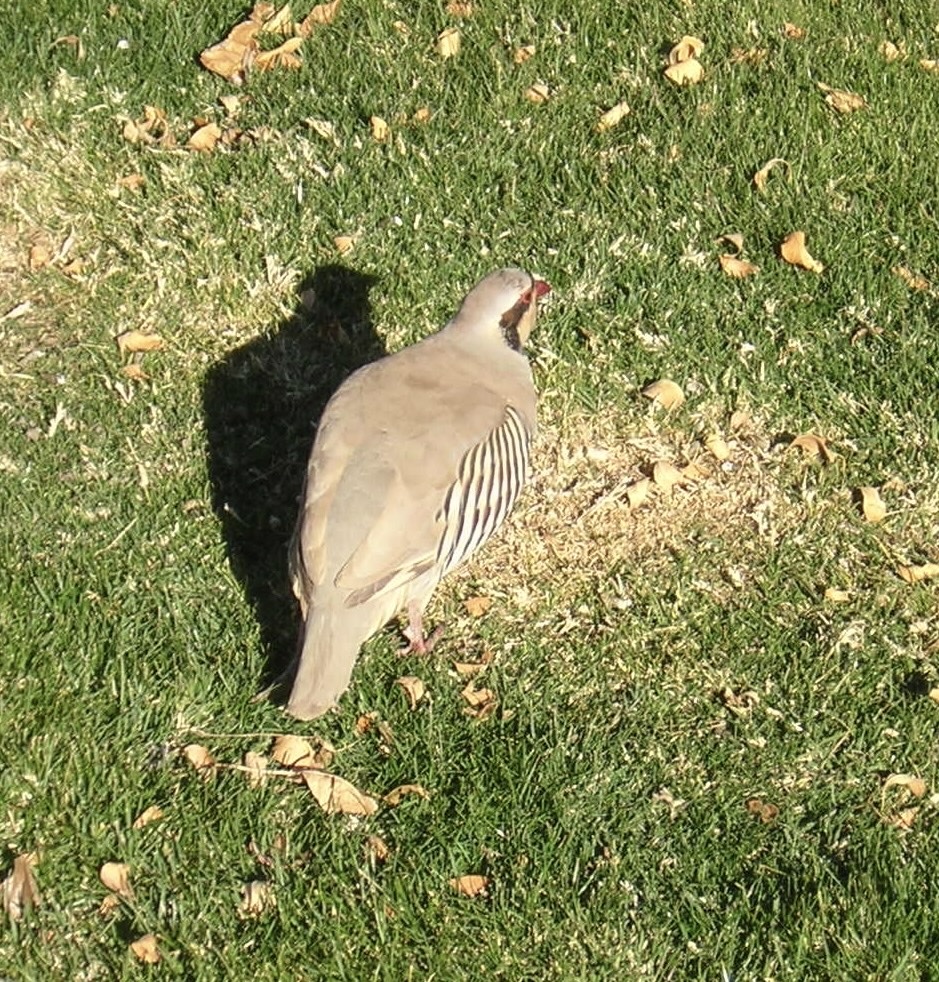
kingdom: Animalia
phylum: Chordata
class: Aves
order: Galliformes
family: Phasianidae
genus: Alectoris
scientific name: Alectoris chukar
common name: Chukar
